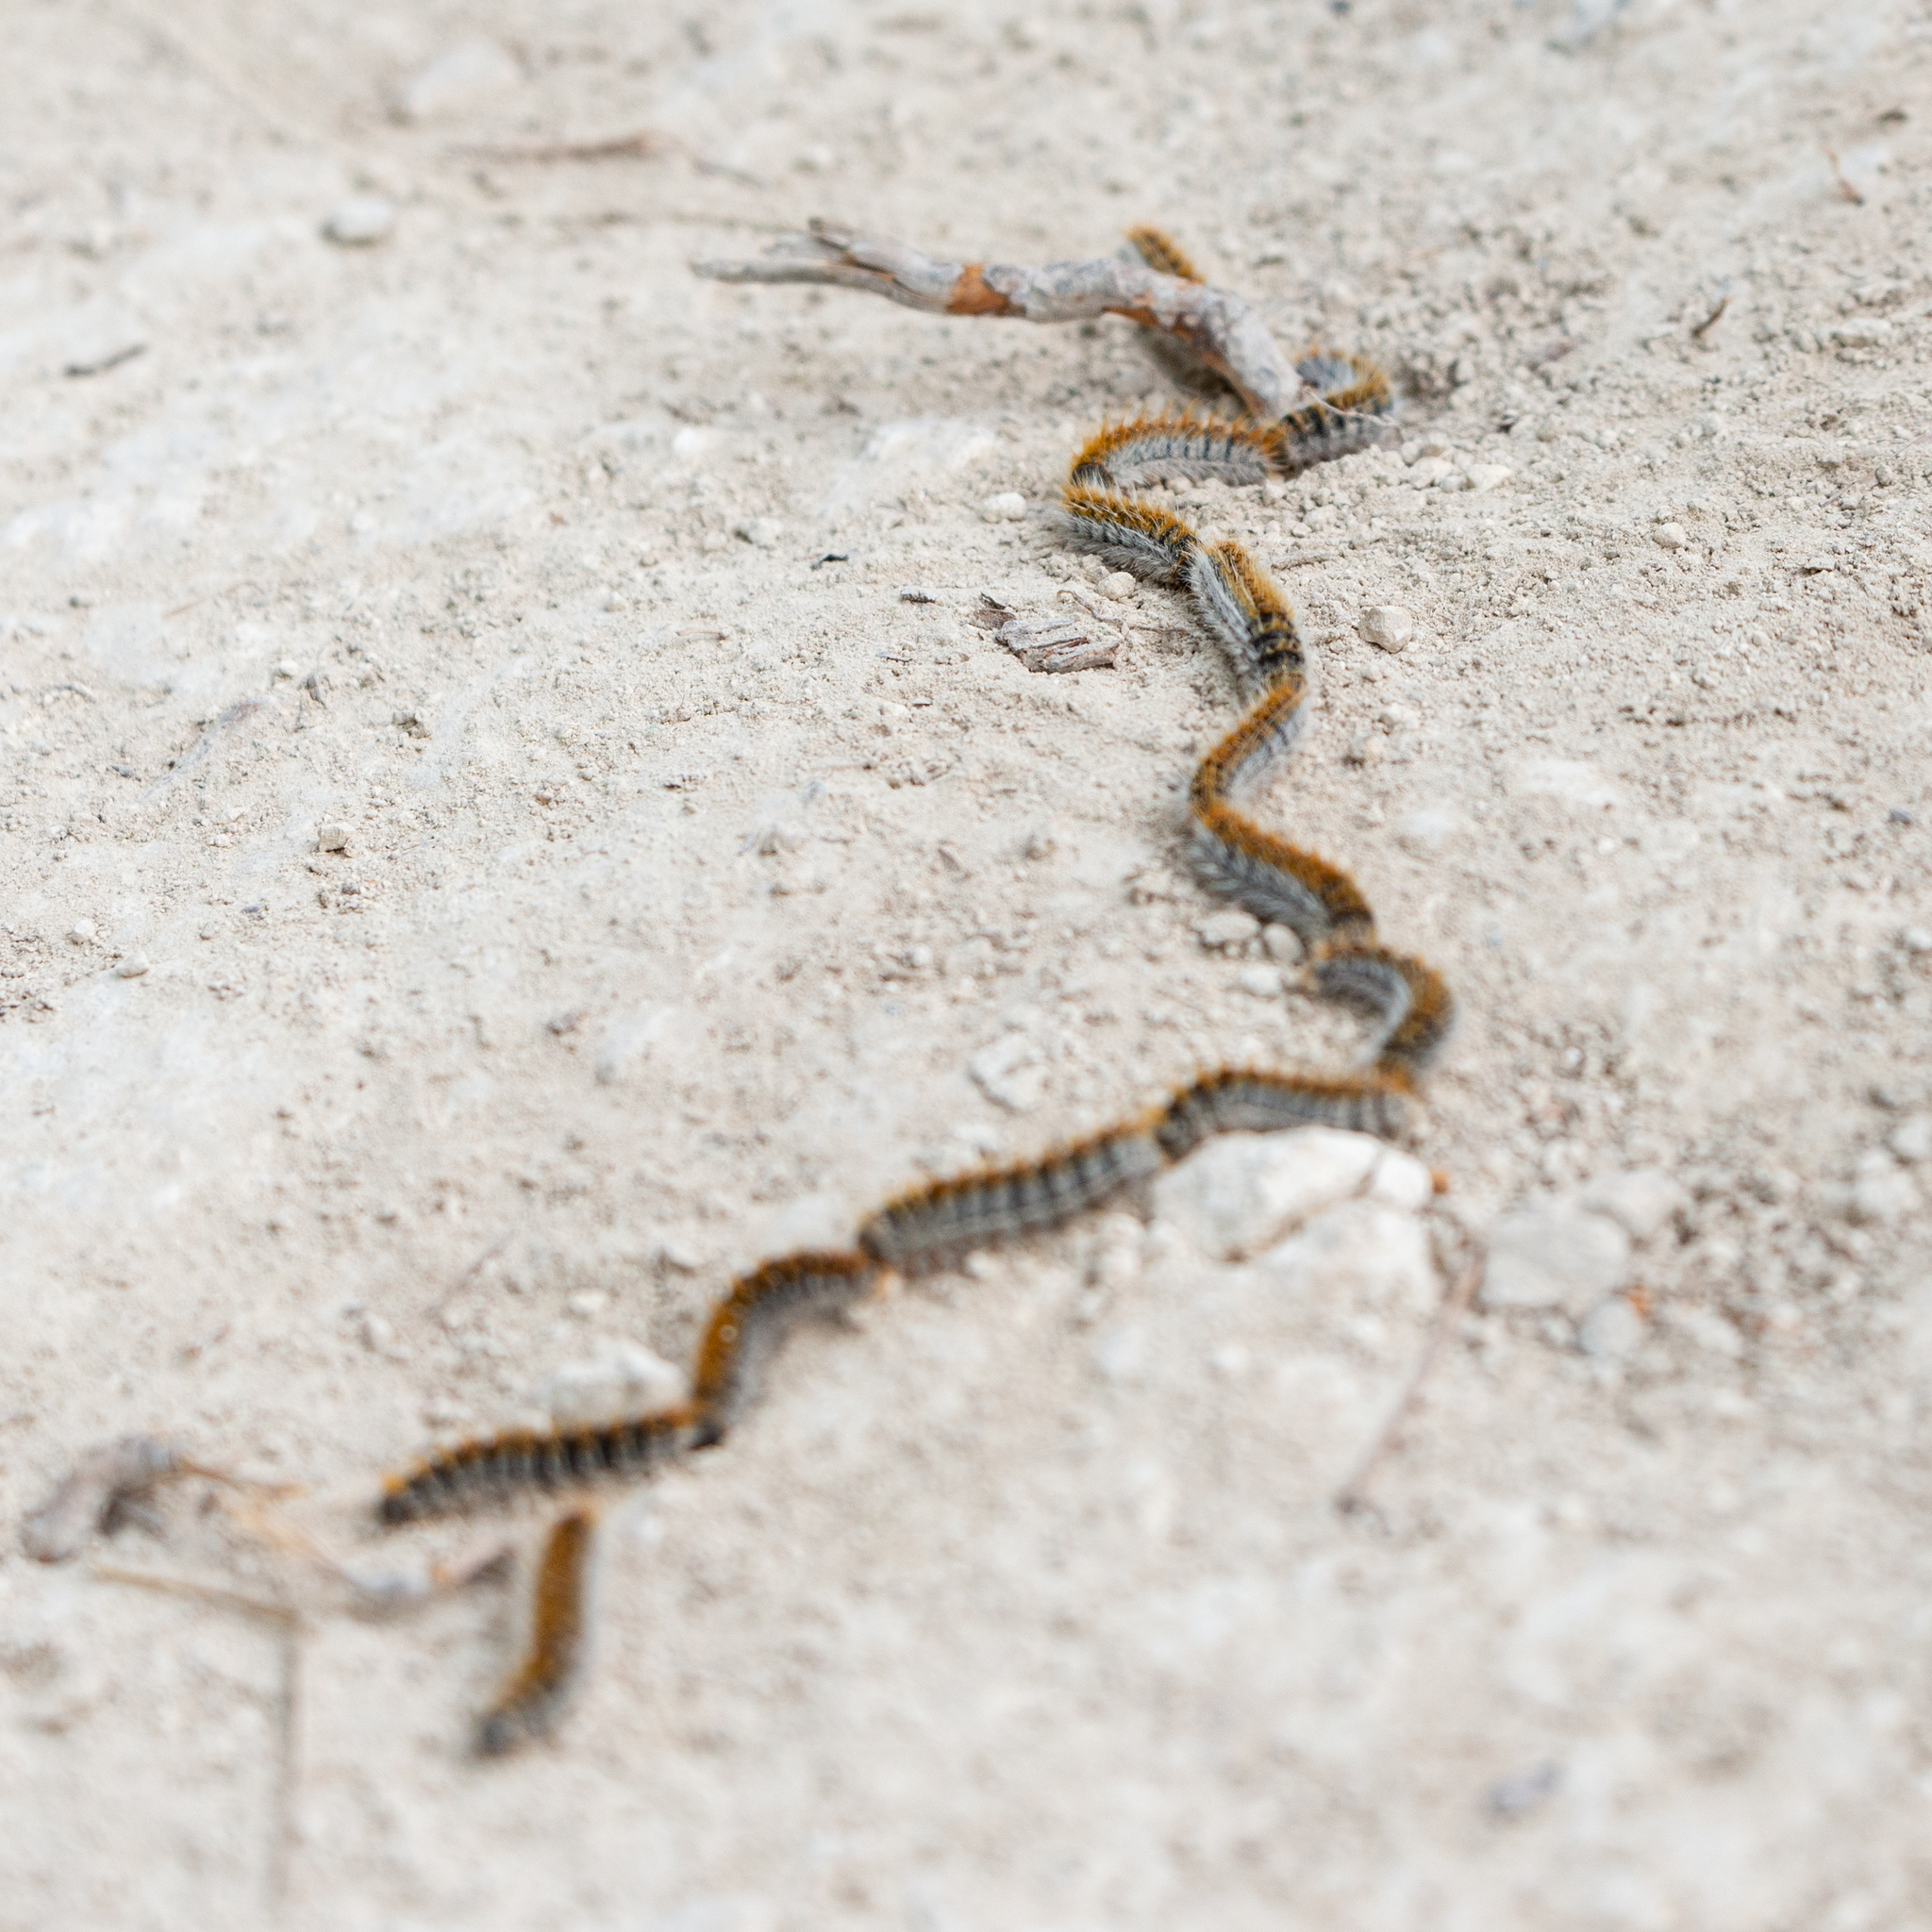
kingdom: Animalia
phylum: Arthropoda
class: Insecta
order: Lepidoptera
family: Notodontidae
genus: Thaumetopoea
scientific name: Thaumetopoea pityocampa
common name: Pine processionary
